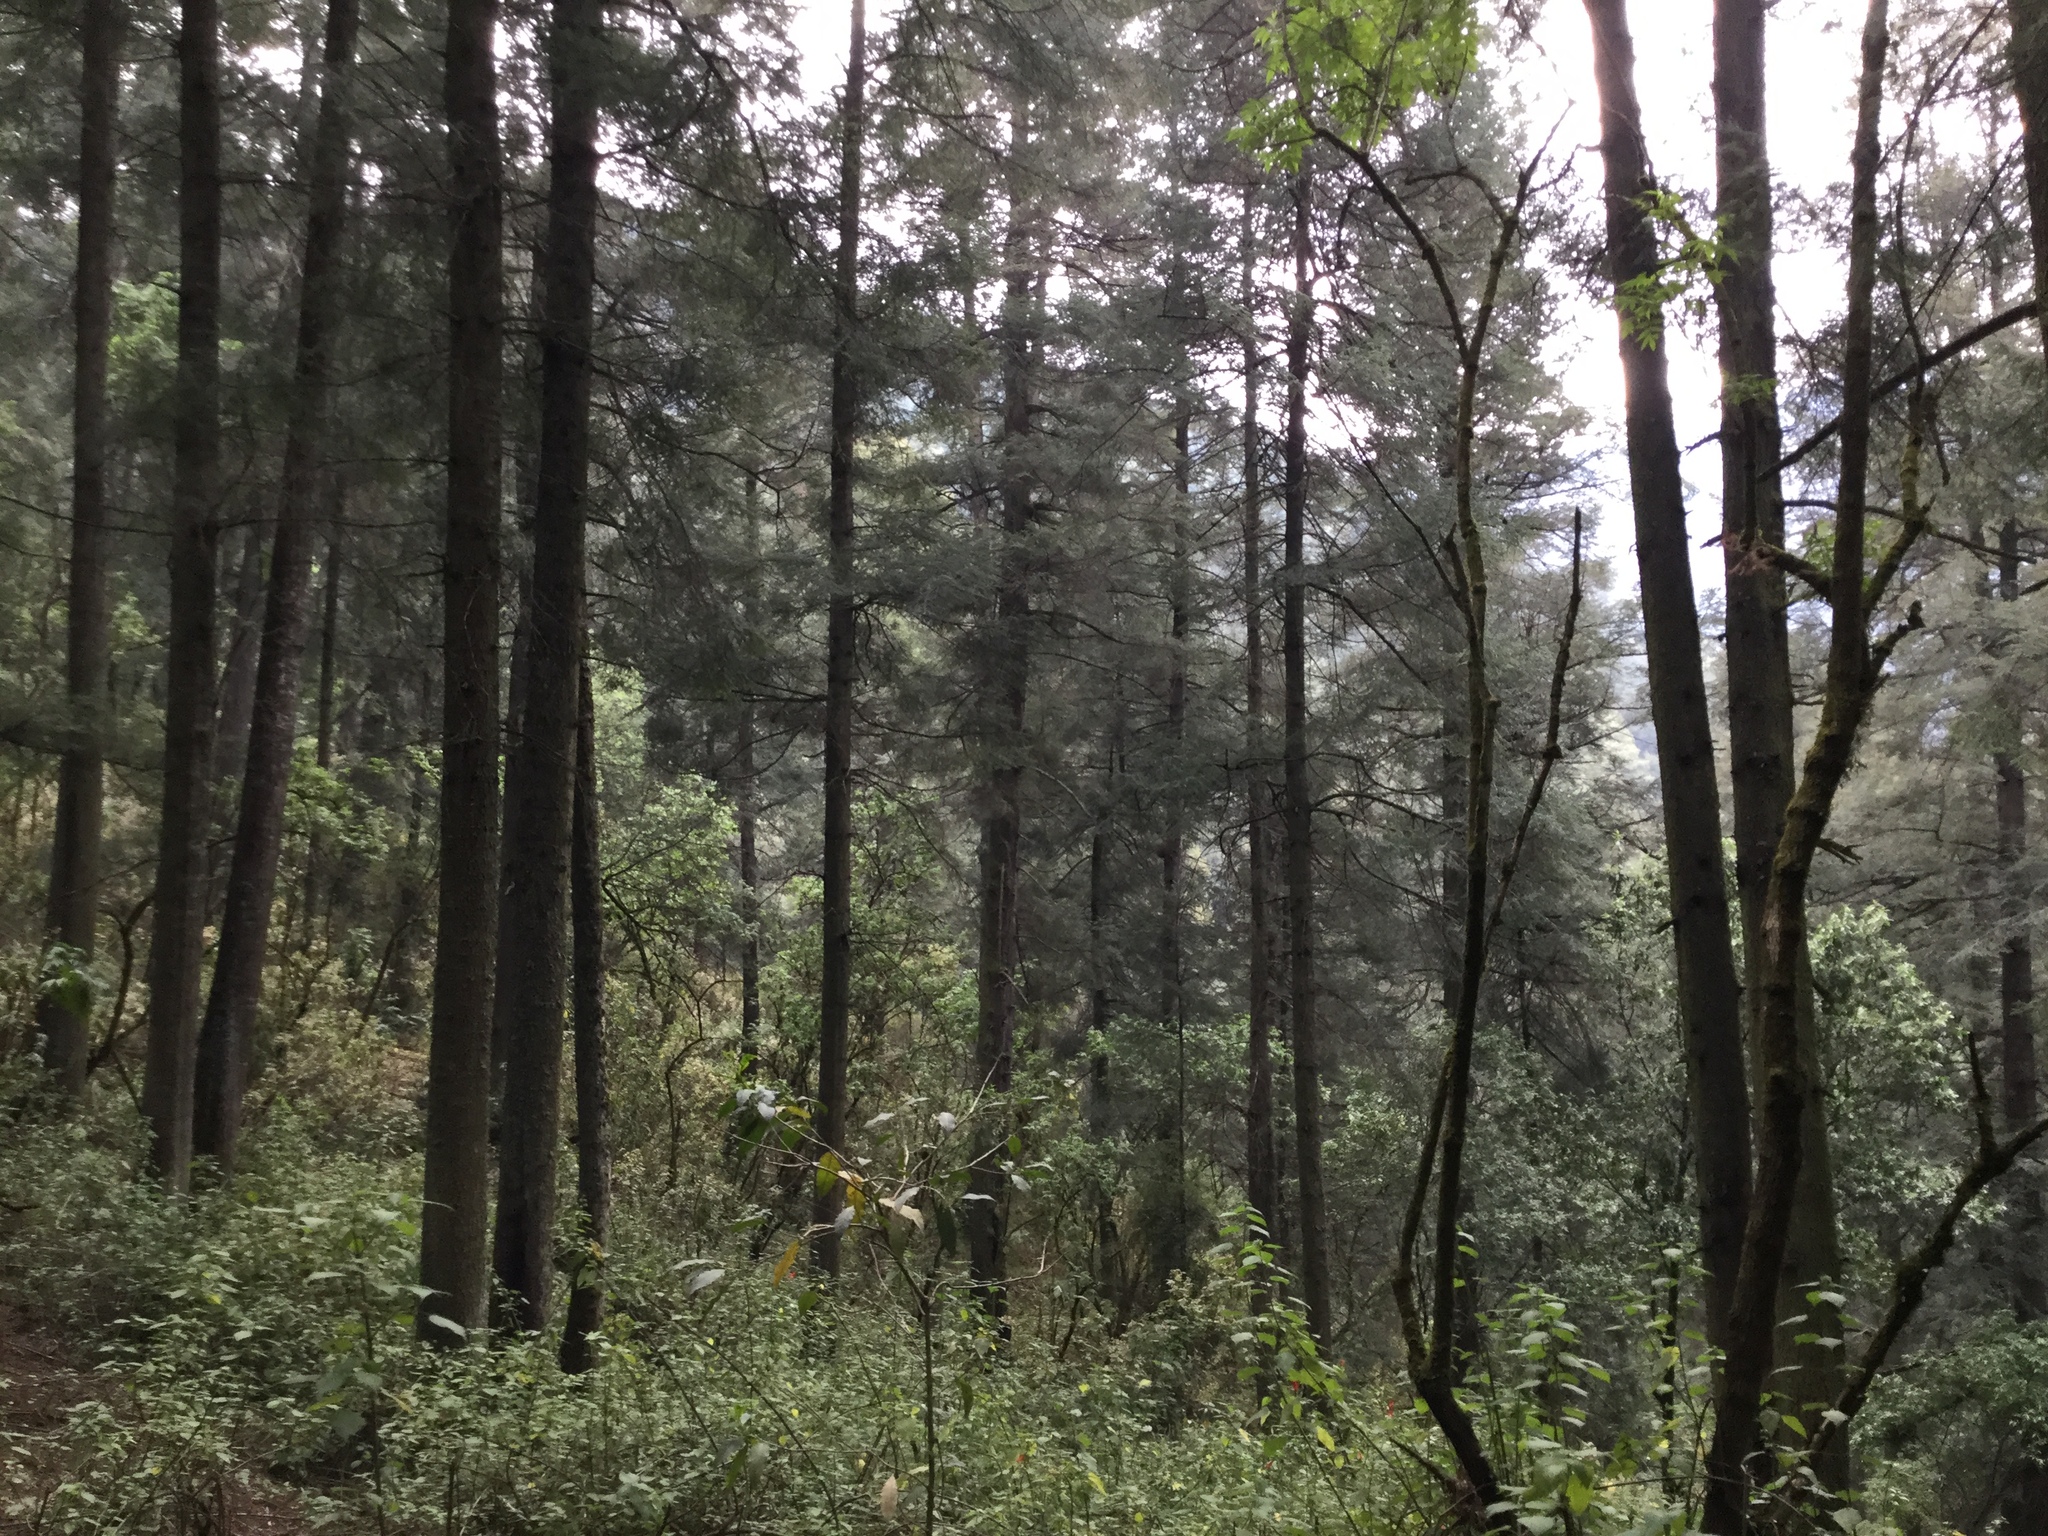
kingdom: Plantae
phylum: Tracheophyta
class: Pinopsida
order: Pinales
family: Pinaceae
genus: Abies
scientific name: Abies religiosa
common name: Sacred fir
